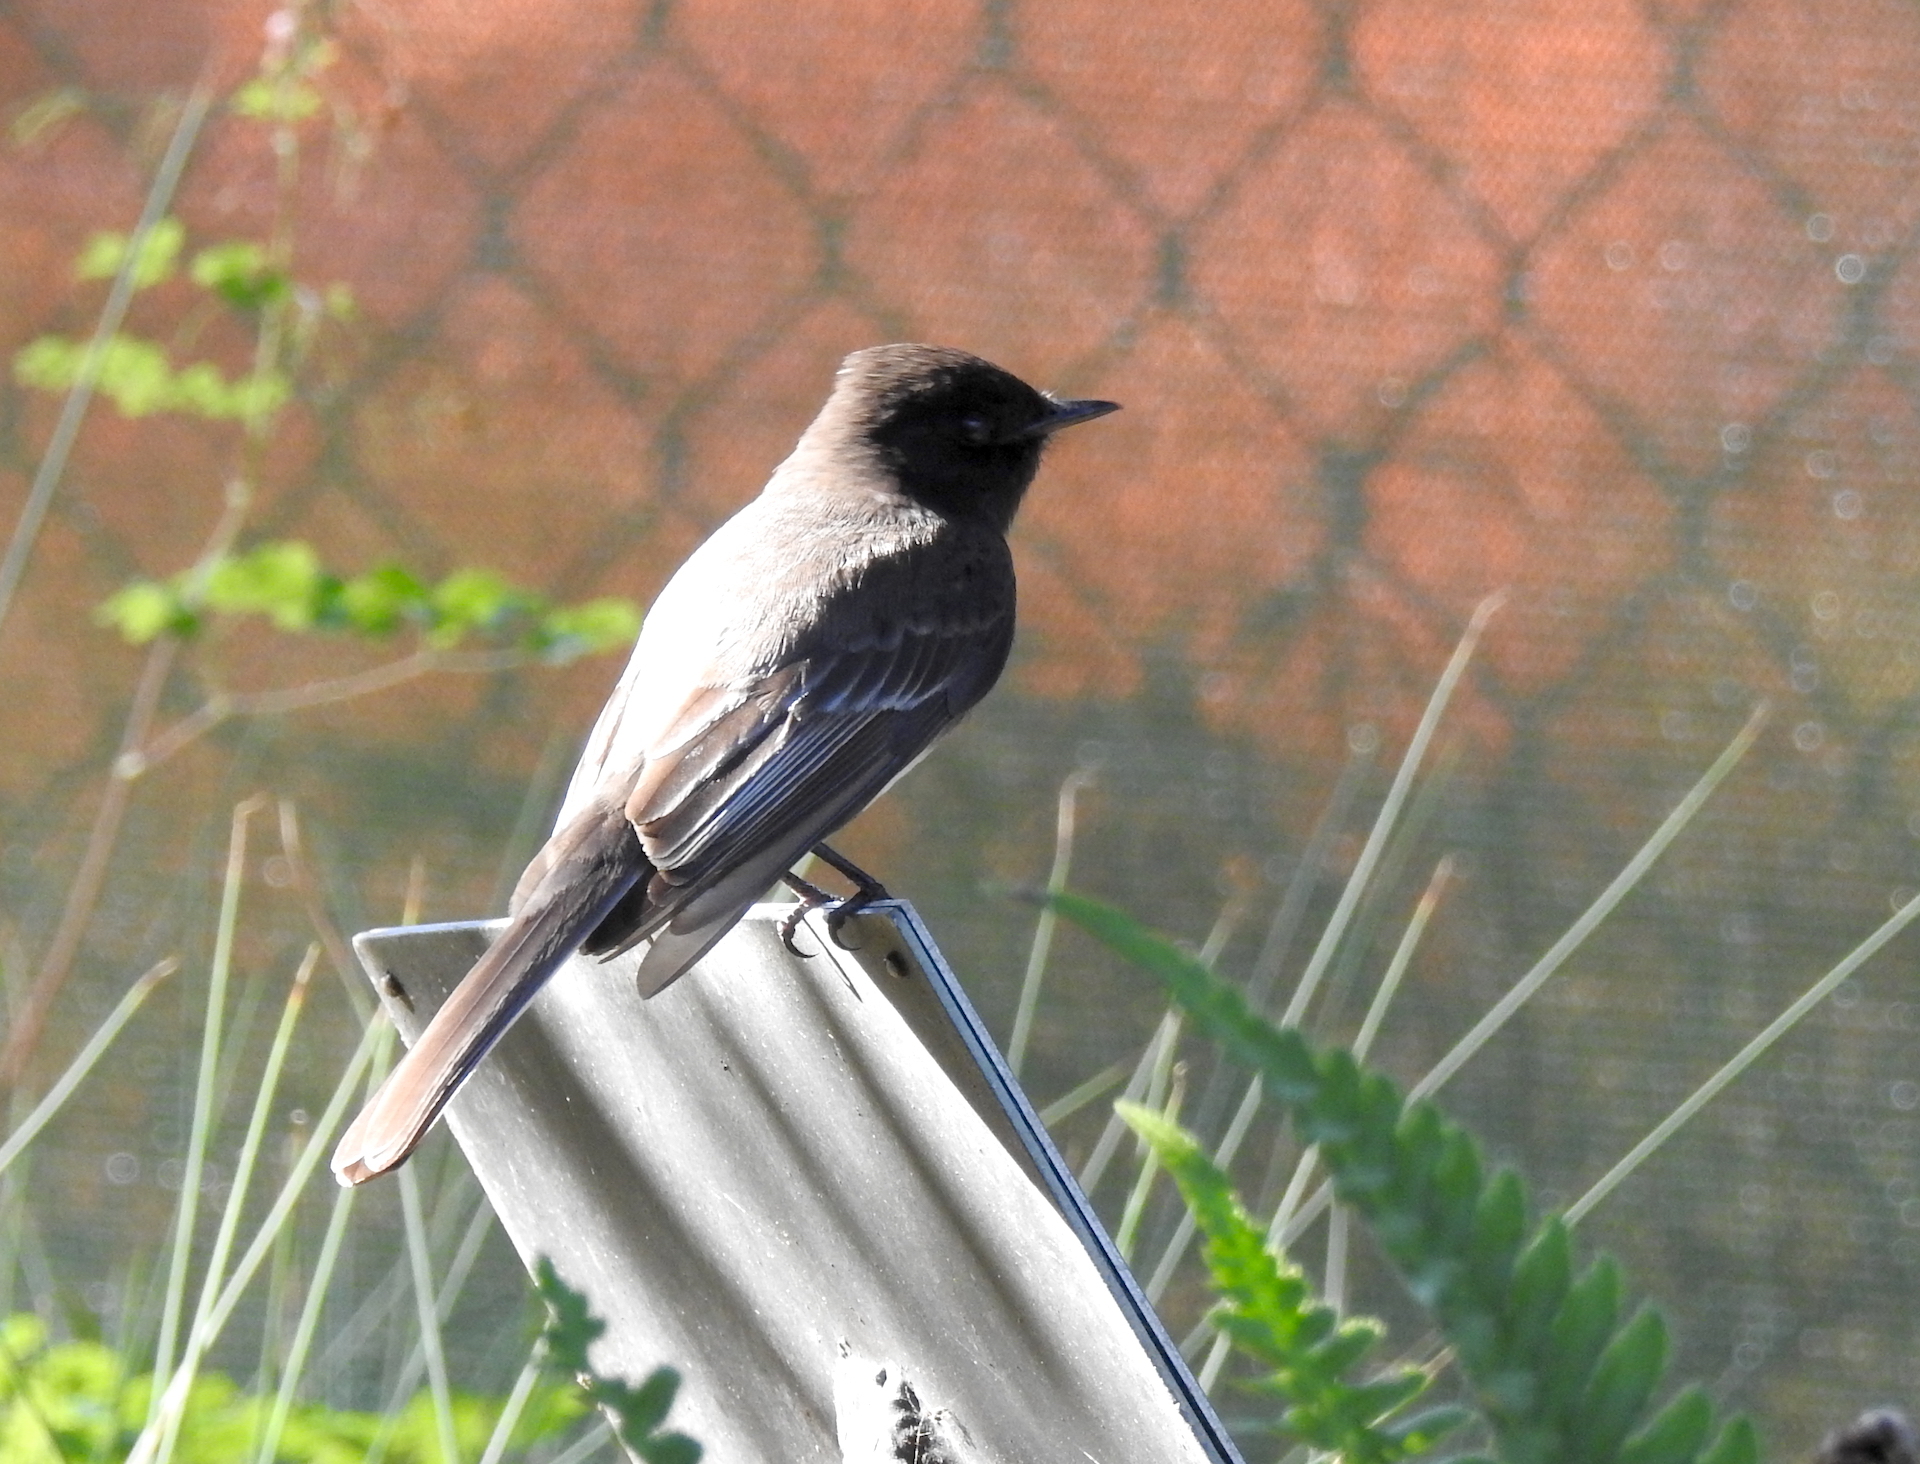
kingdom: Animalia
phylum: Chordata
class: Aves
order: Passeriformes
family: Tyrannidae
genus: Sayornis
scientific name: Sayornis nigricans
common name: Black phoebe
